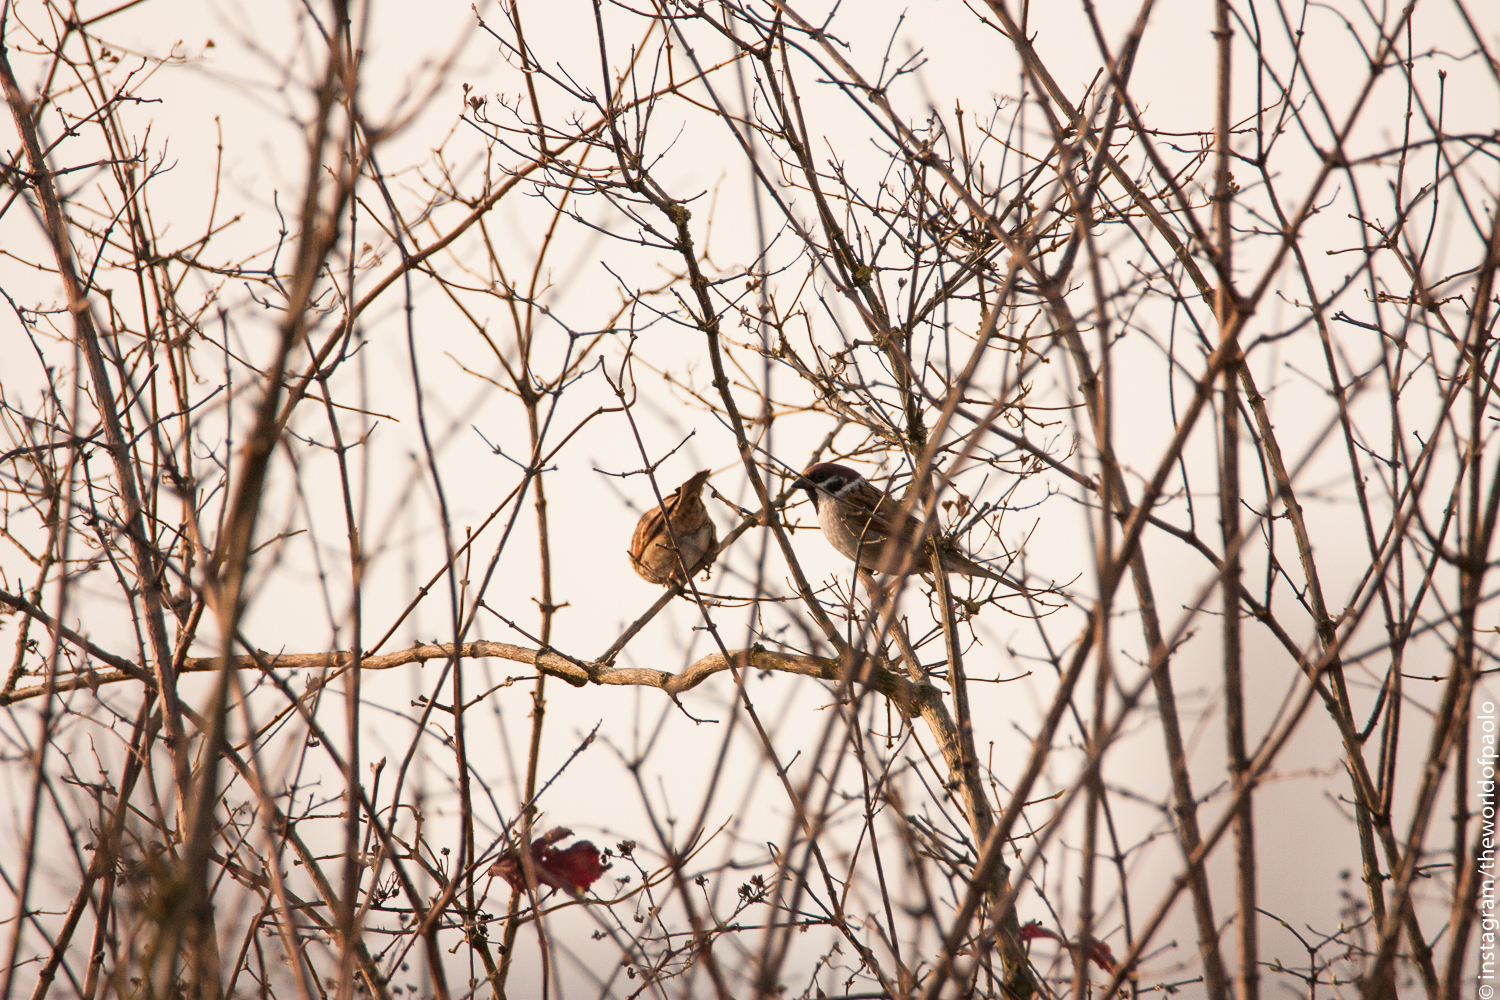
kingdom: Animalia
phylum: Chordata
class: Aves
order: Passeriformes
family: Passeridae
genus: Passer
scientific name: Passer montanus
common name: Eurasian tree sparrow
